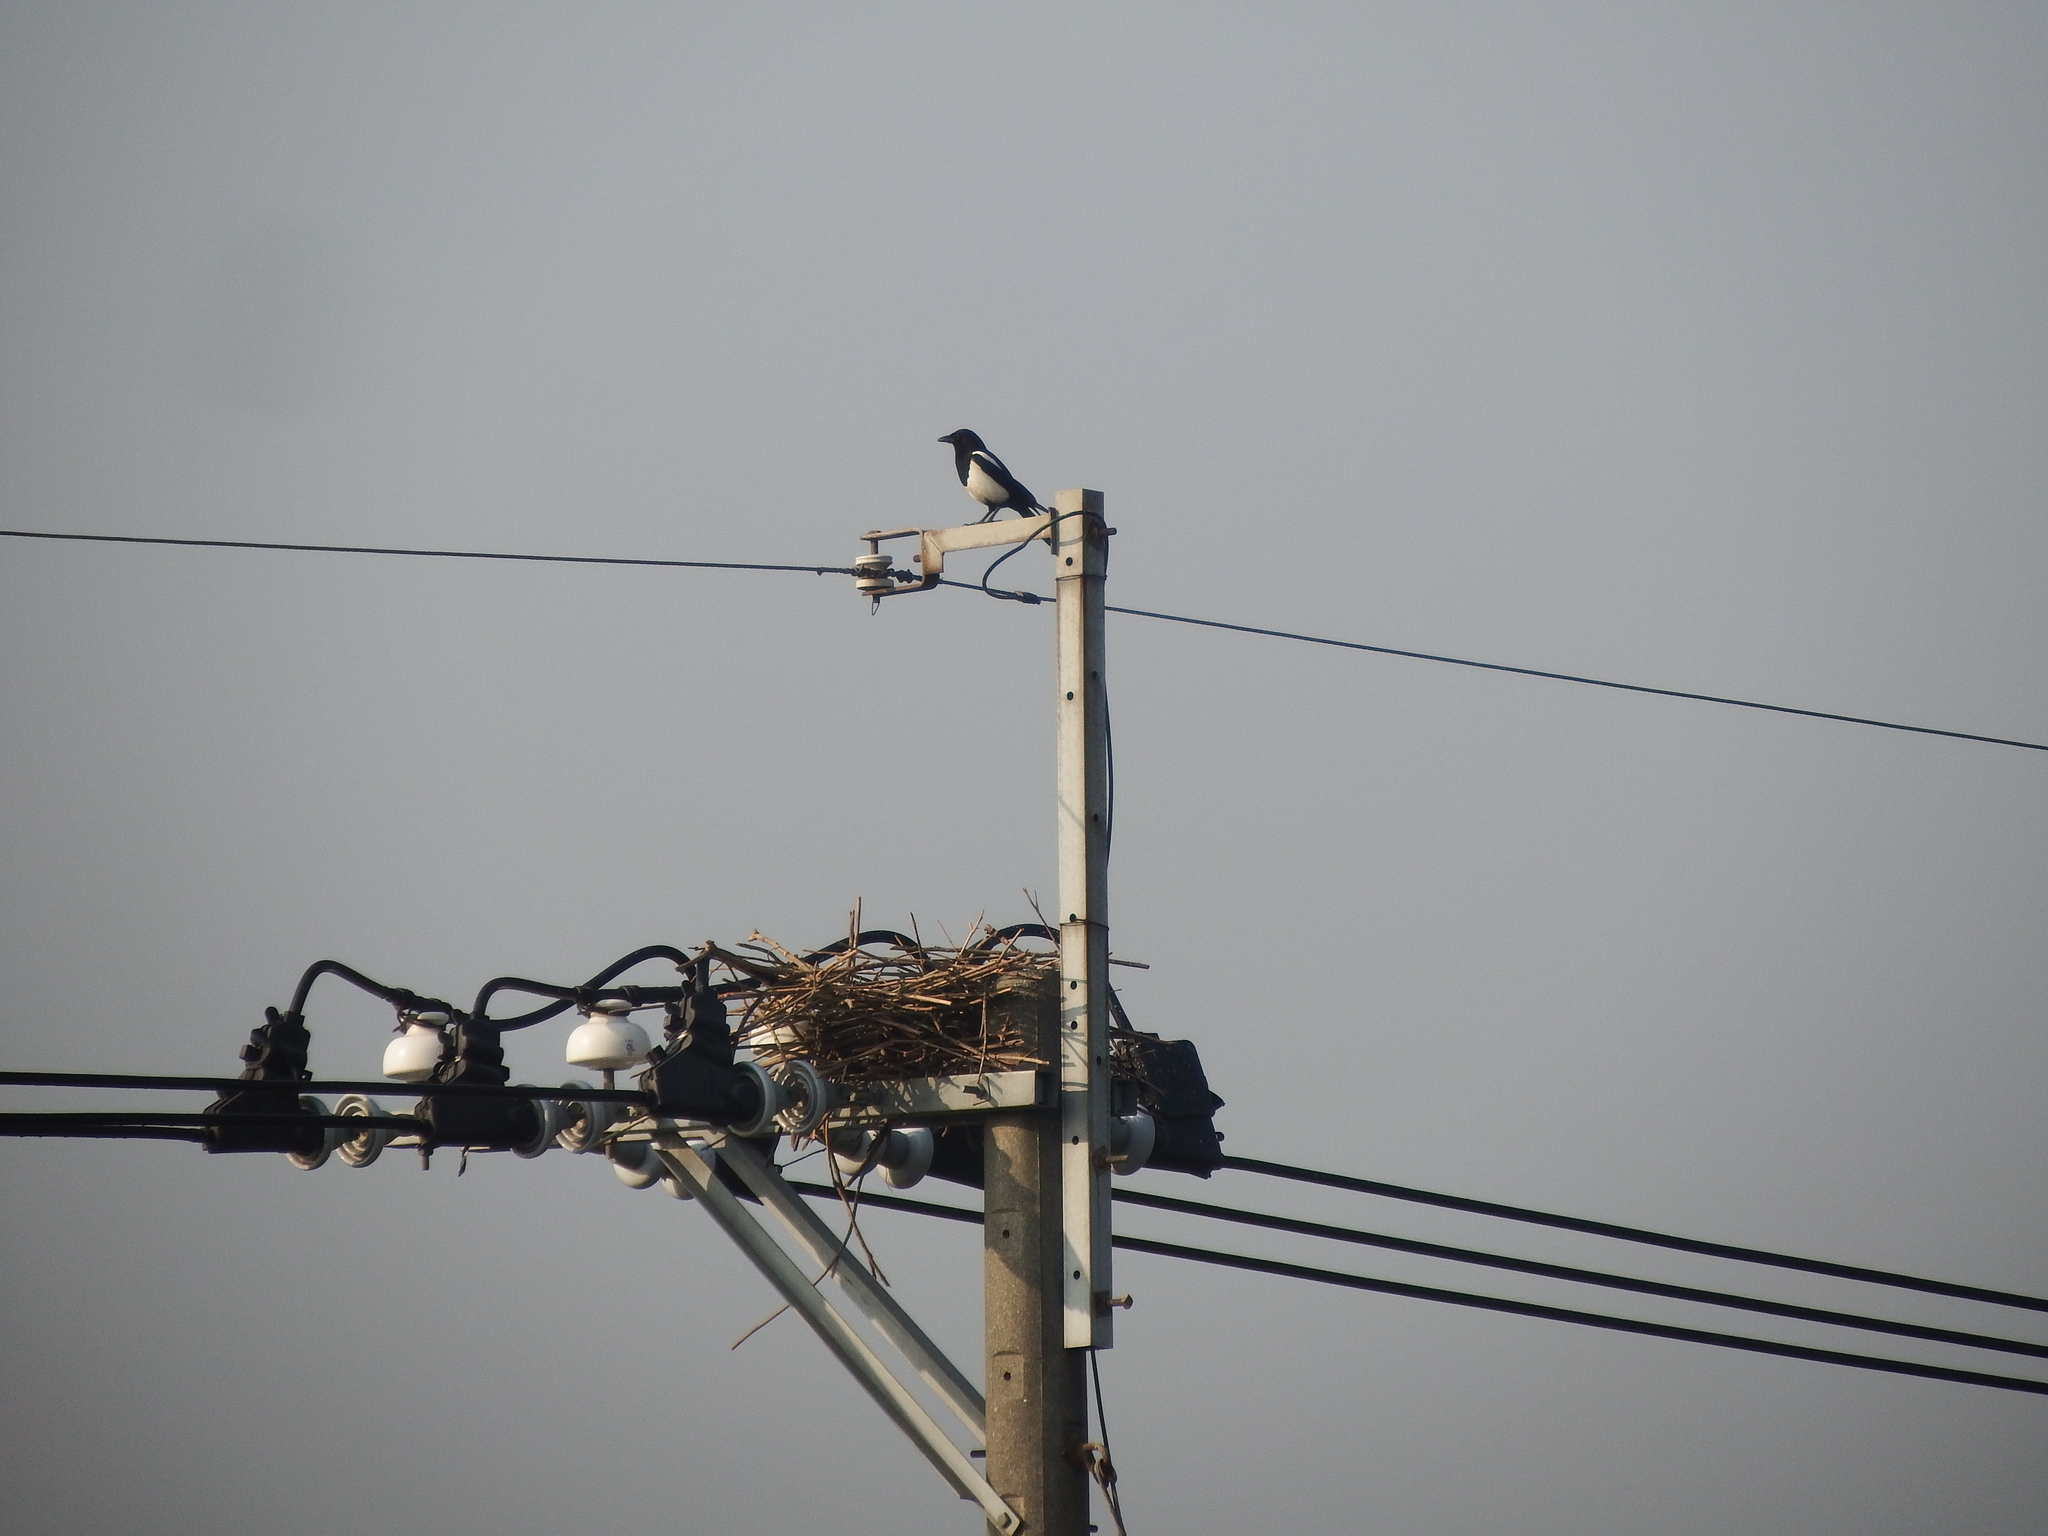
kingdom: Animalia
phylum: Chordata
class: Aves
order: Passeriformes
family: Corvidae
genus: Pica
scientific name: Pica serica
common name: Oriental magpie
